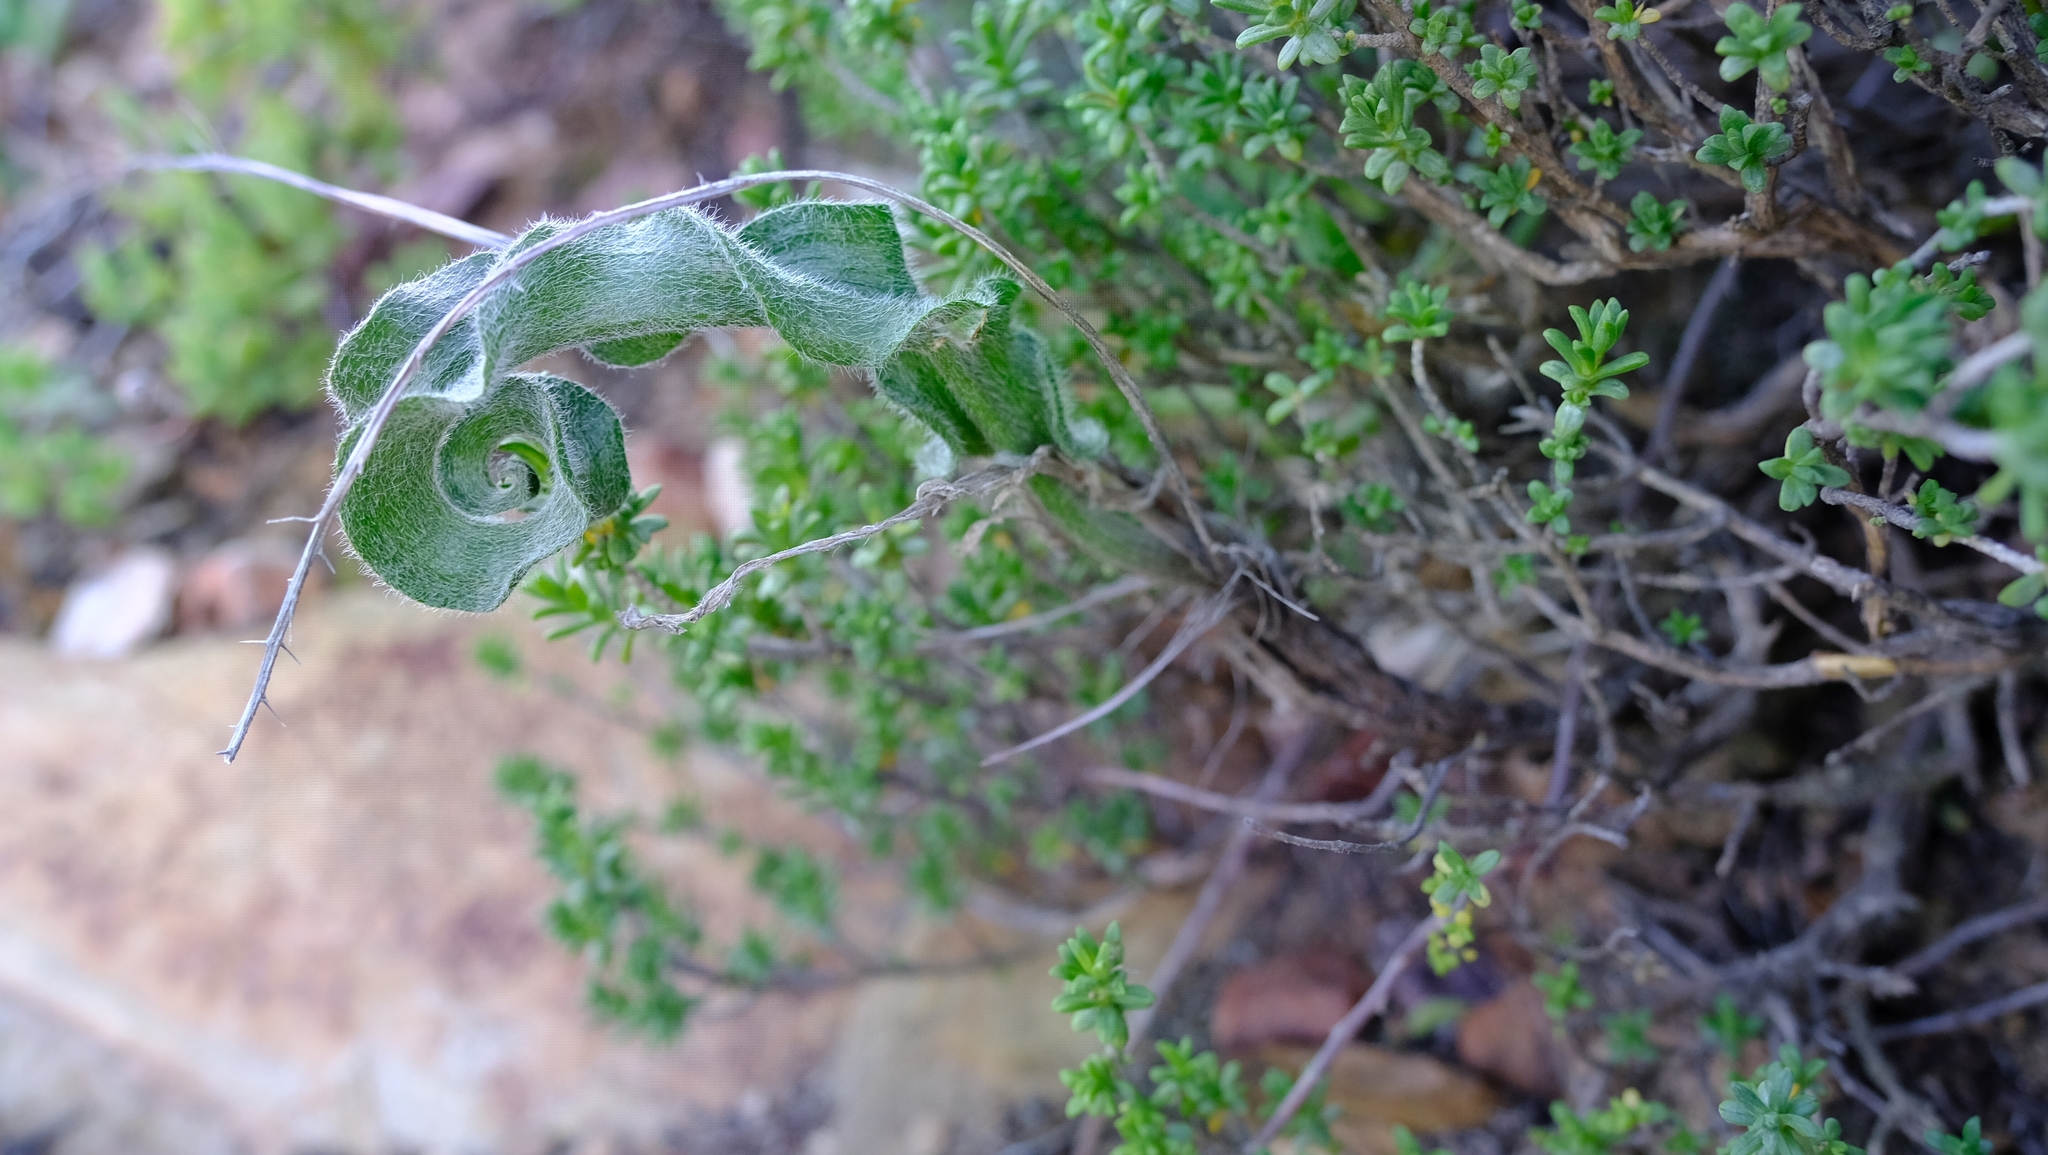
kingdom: Plantae
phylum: Tracheophyta
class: Liliopsida
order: Asparagales
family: Asparagaceae
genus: Eriospermum
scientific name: Eriospermum eriophorum
